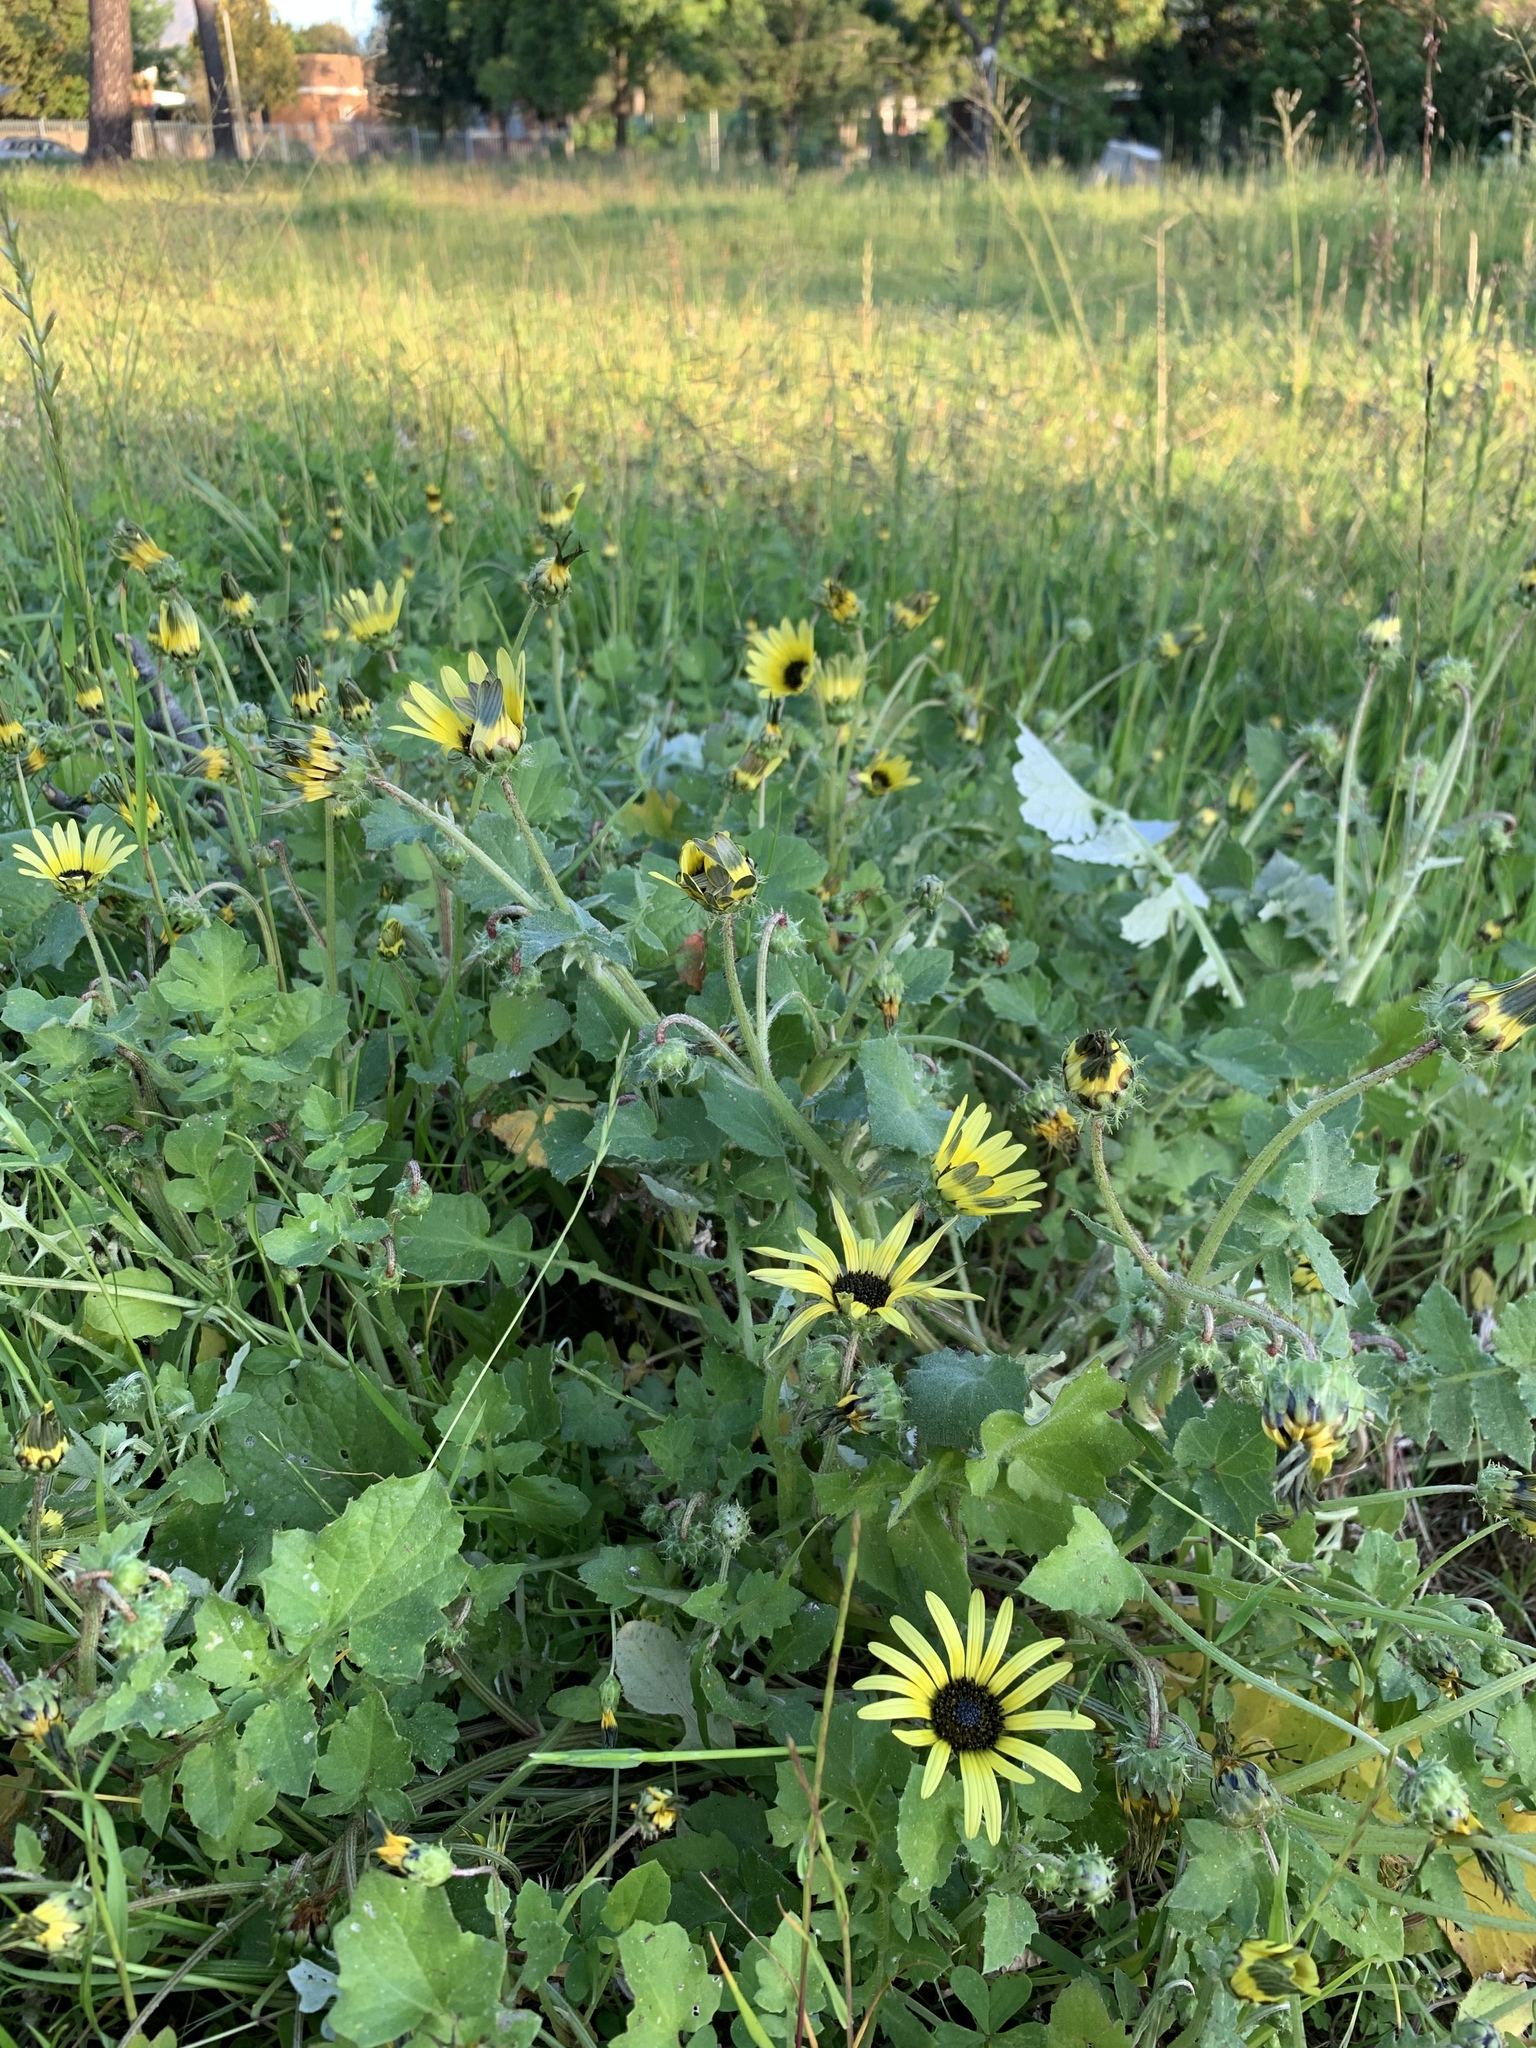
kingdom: Plantae
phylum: Tracheophyta
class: Magnoliopsida
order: Asterales
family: Asteraceae
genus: Arctotheca
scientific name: Arctotheca calendula
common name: Capeweed
